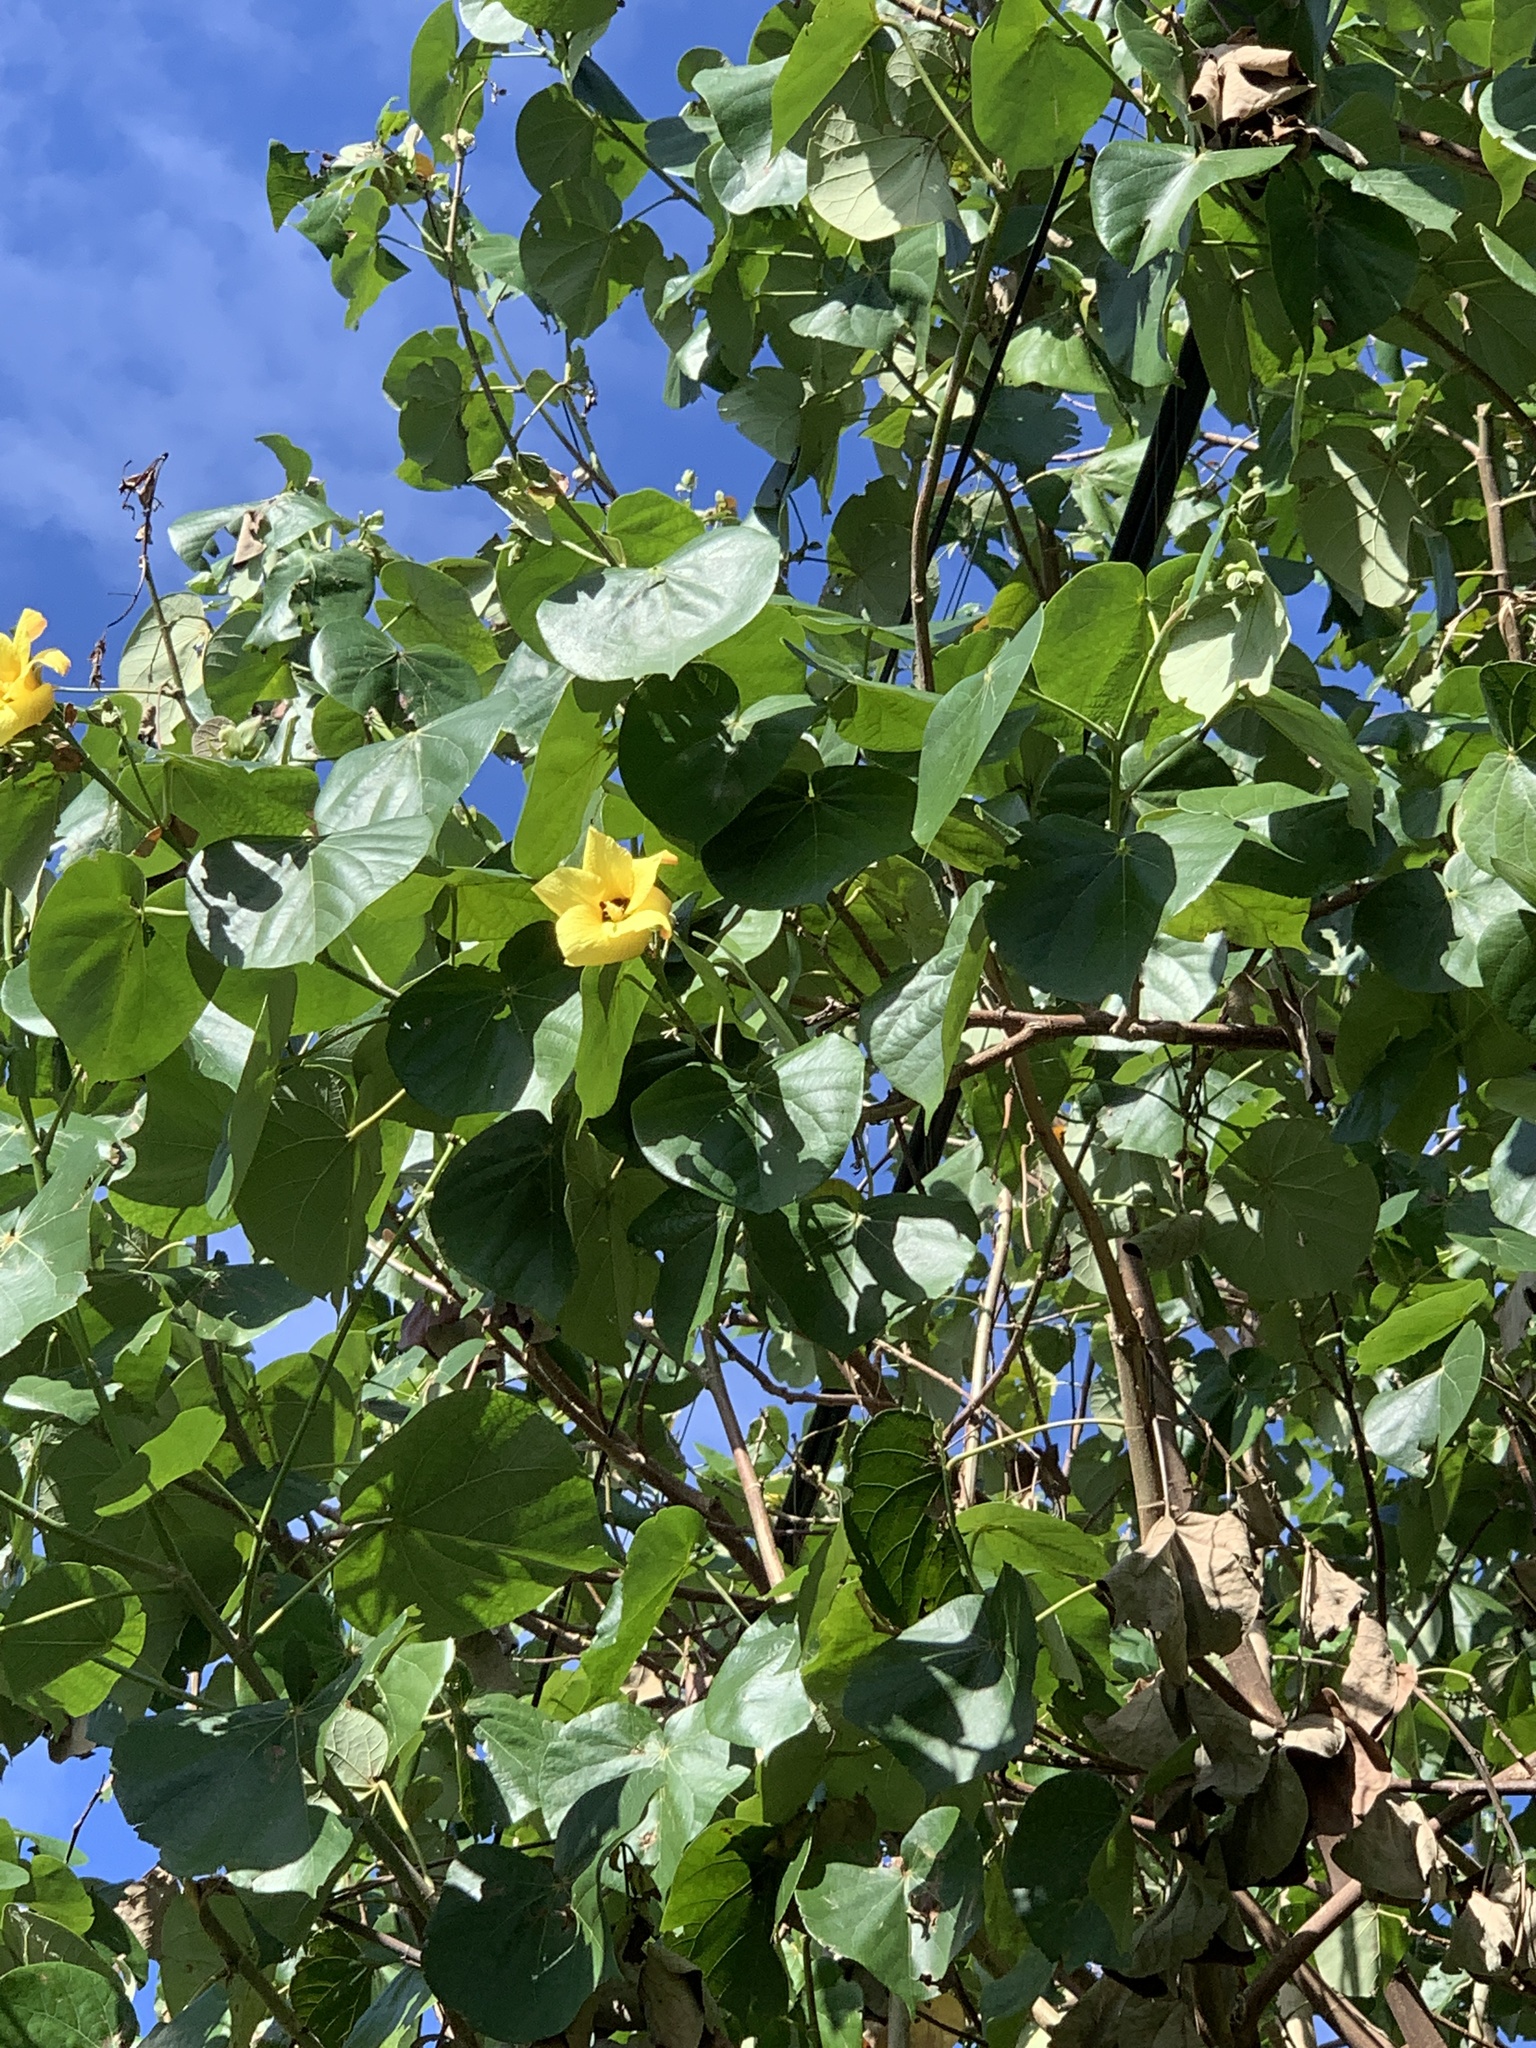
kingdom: Plantae
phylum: Tracheophyta
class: Magnoliopsida
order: Malvales
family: Malvaceae
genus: Talipariti
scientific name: Talipariti tiliaceum
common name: Sea hibiscus
